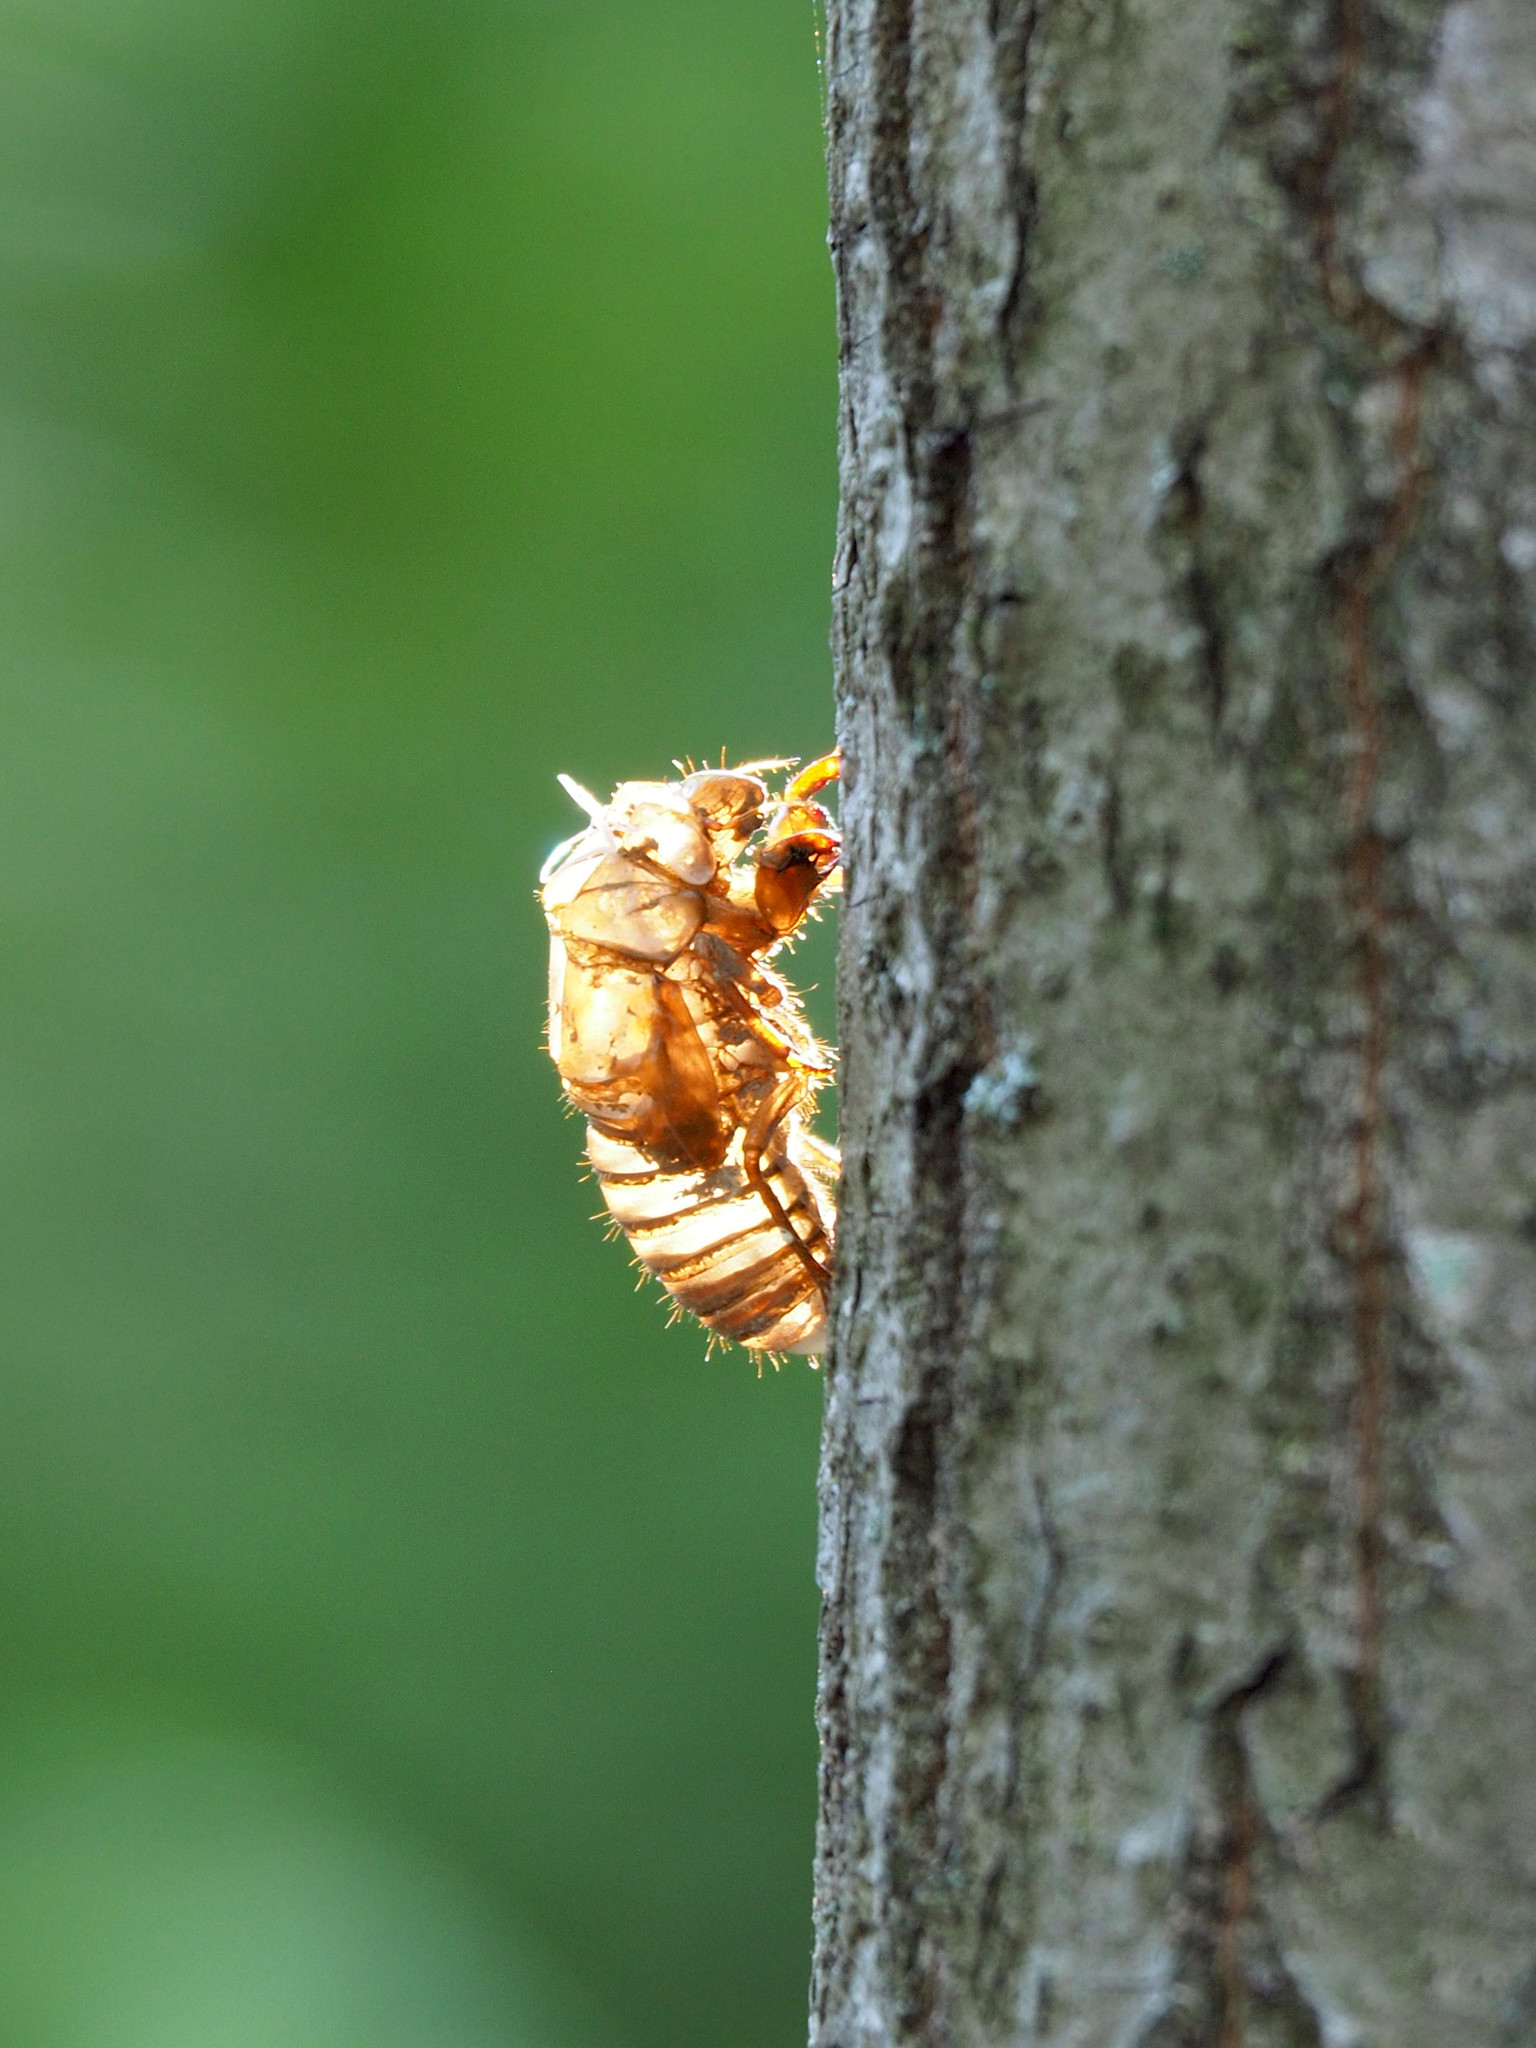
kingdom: Animalia
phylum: Arthropoda
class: Insecta
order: Hemiptera
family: Cicadidae
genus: Magicicada
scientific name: Magicicada
